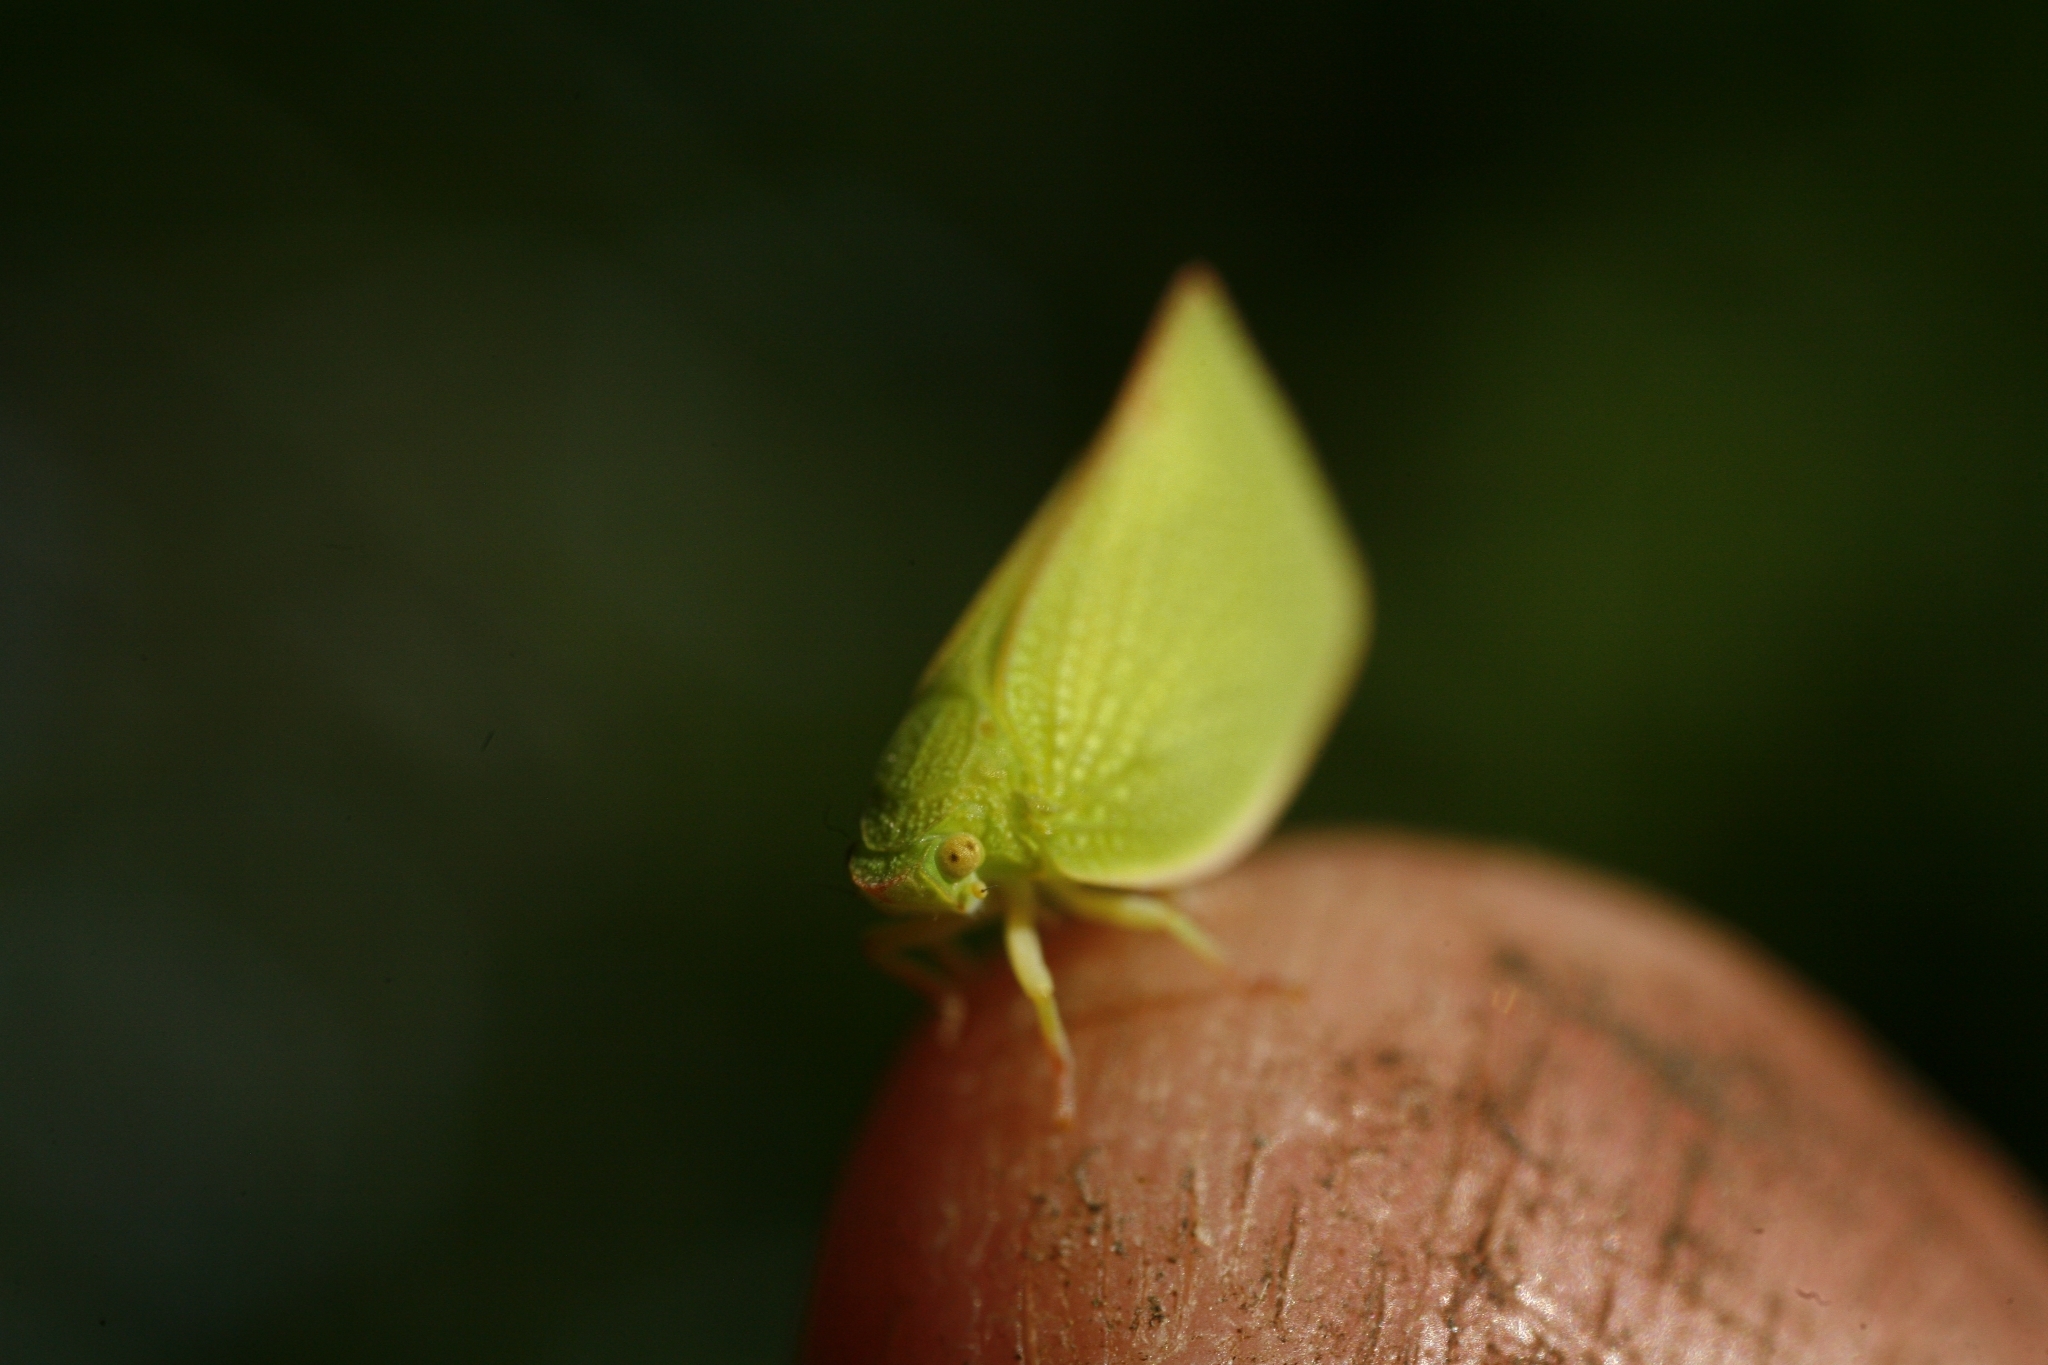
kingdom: Animalia
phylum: Arthropoda
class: Insecta
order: Hemiptera
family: Flatidae
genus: Siphanta
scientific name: Siphanta acuta
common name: Torpedo bug
